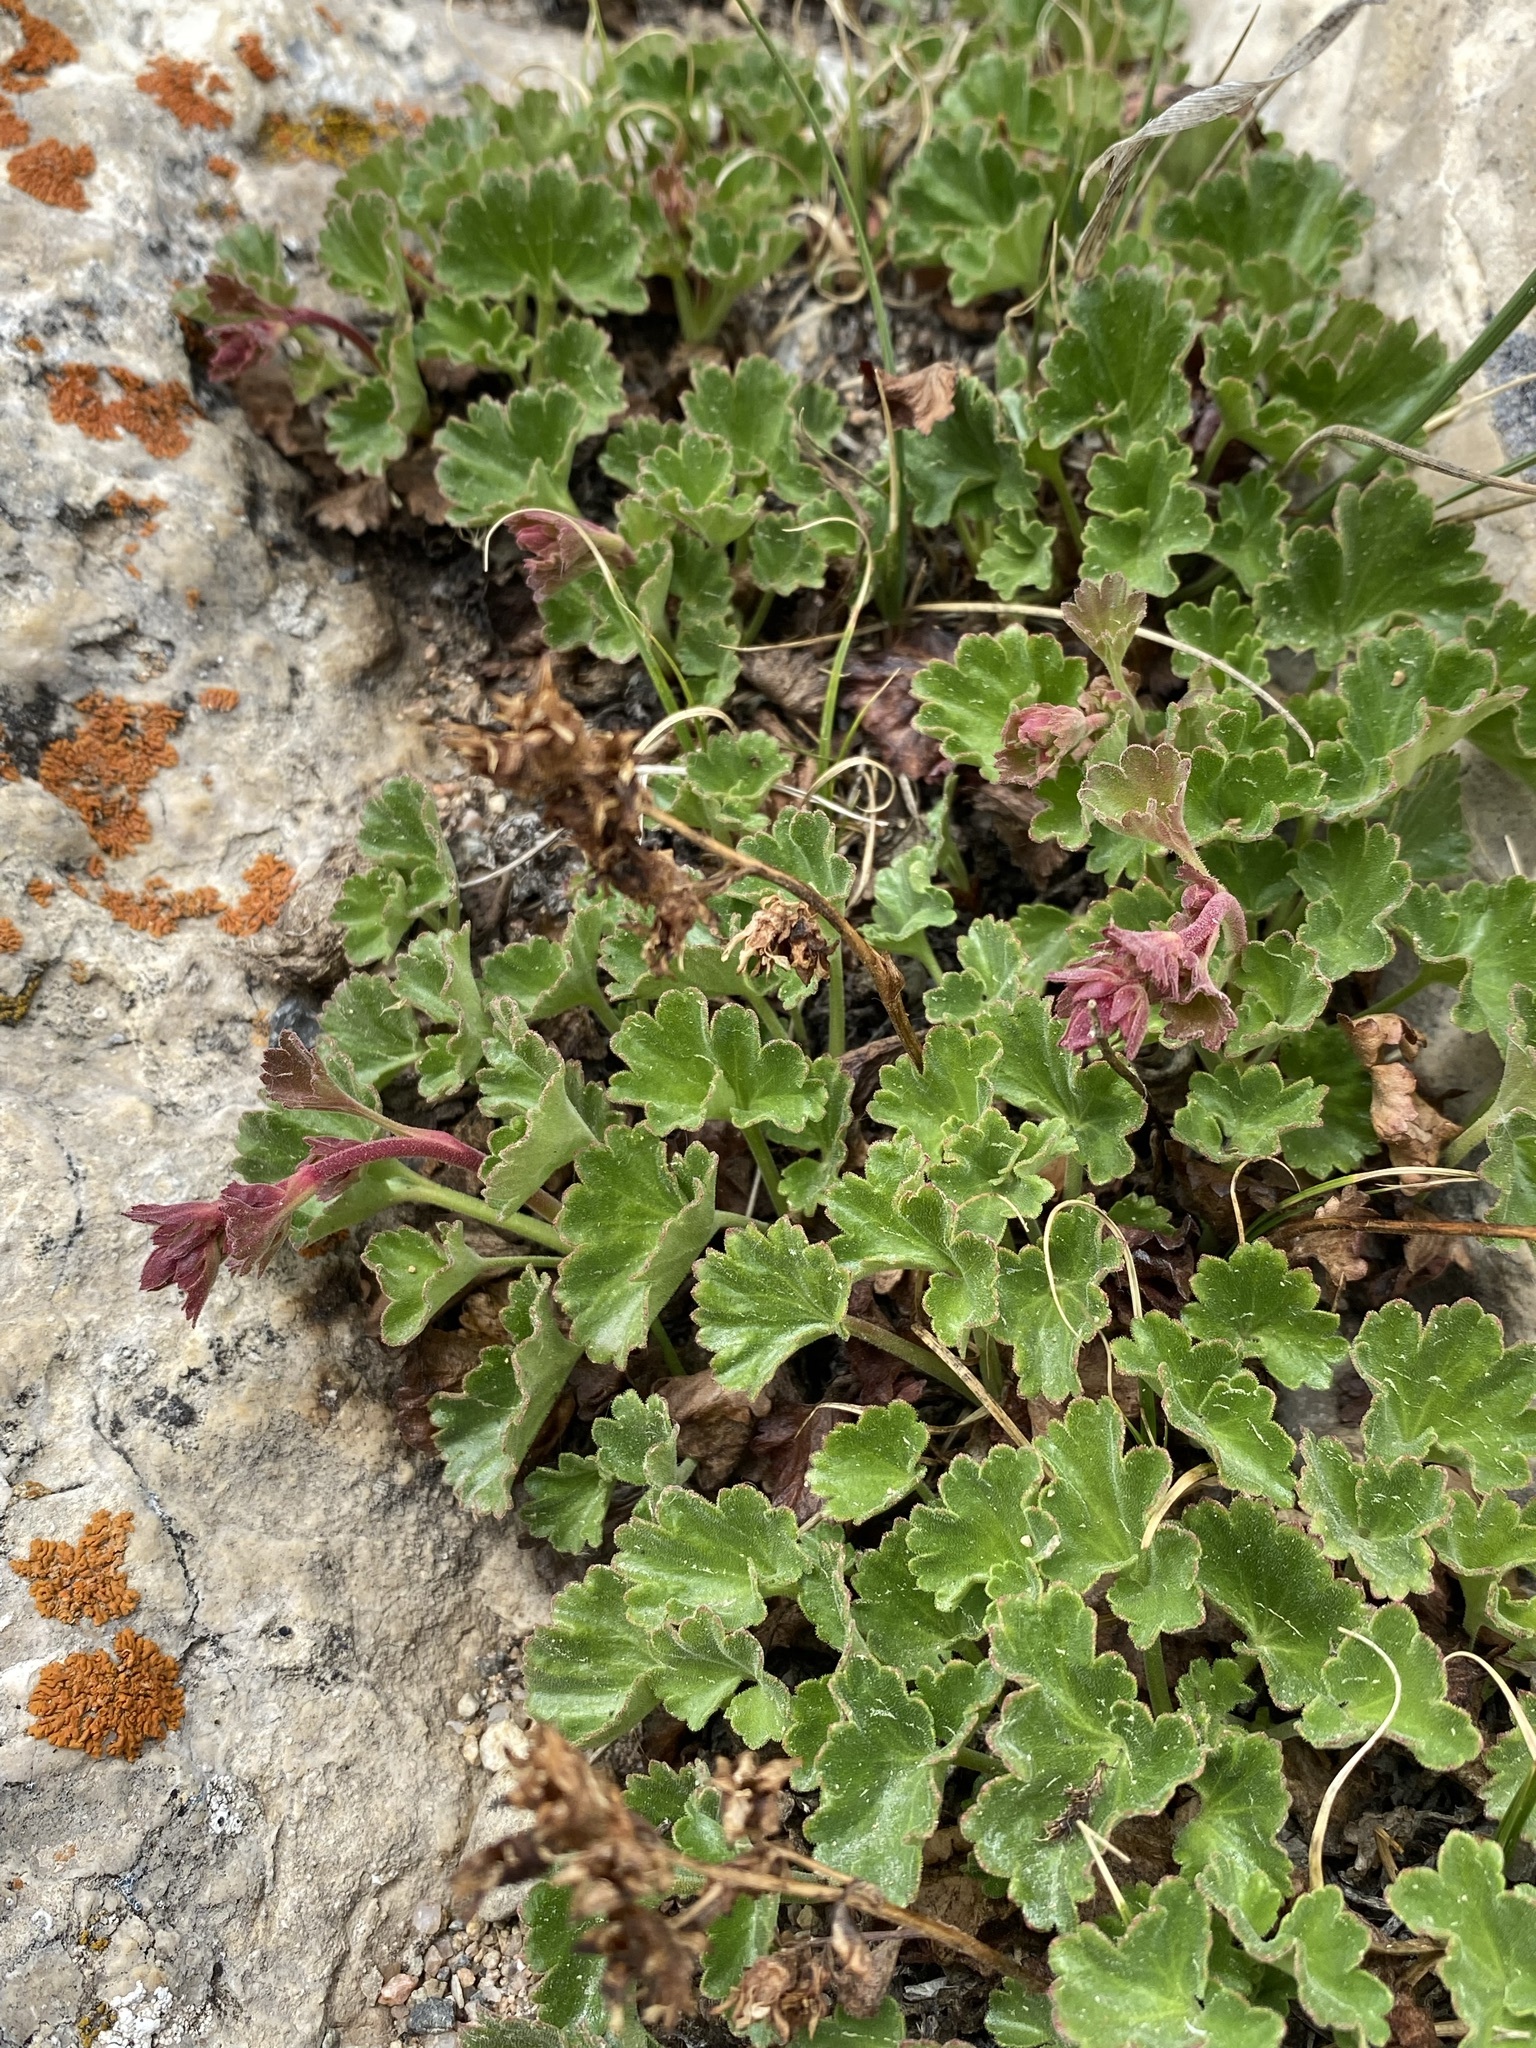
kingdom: Plantae
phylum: Tracheophyta
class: Magnoliopsida
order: Saxifragales
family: Saxifragaceae
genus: Telesonix
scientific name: Telesonix heucheriformis
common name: Alumroot brookfoam
